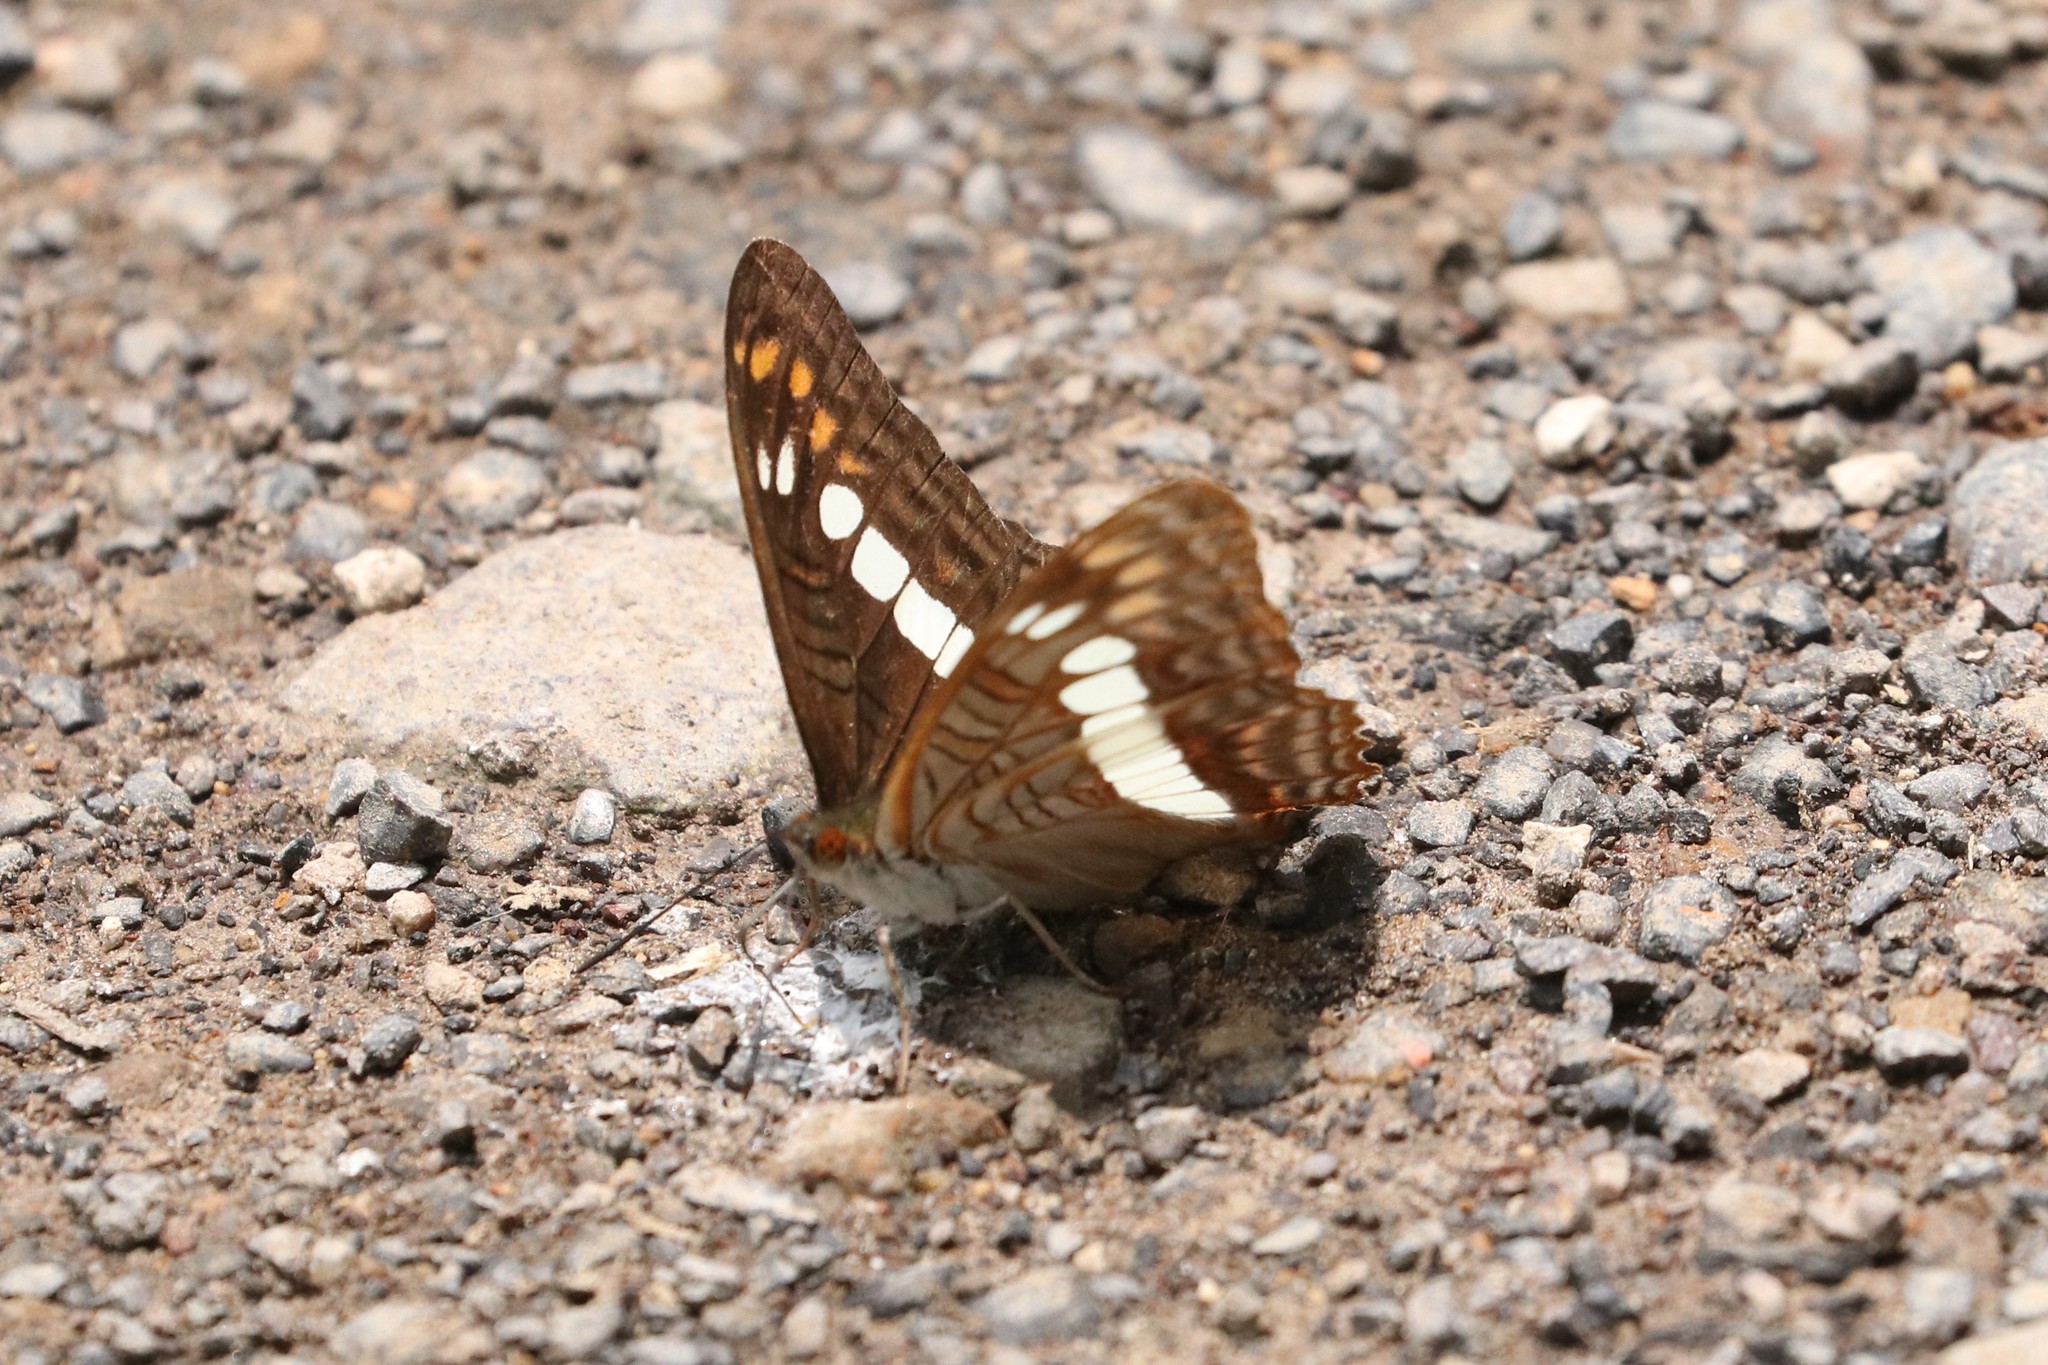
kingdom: Animalia
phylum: Arthropoda
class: Insecta
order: Lepidoptera
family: Nymphalidae
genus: Limenitis
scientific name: Limenitis alala
